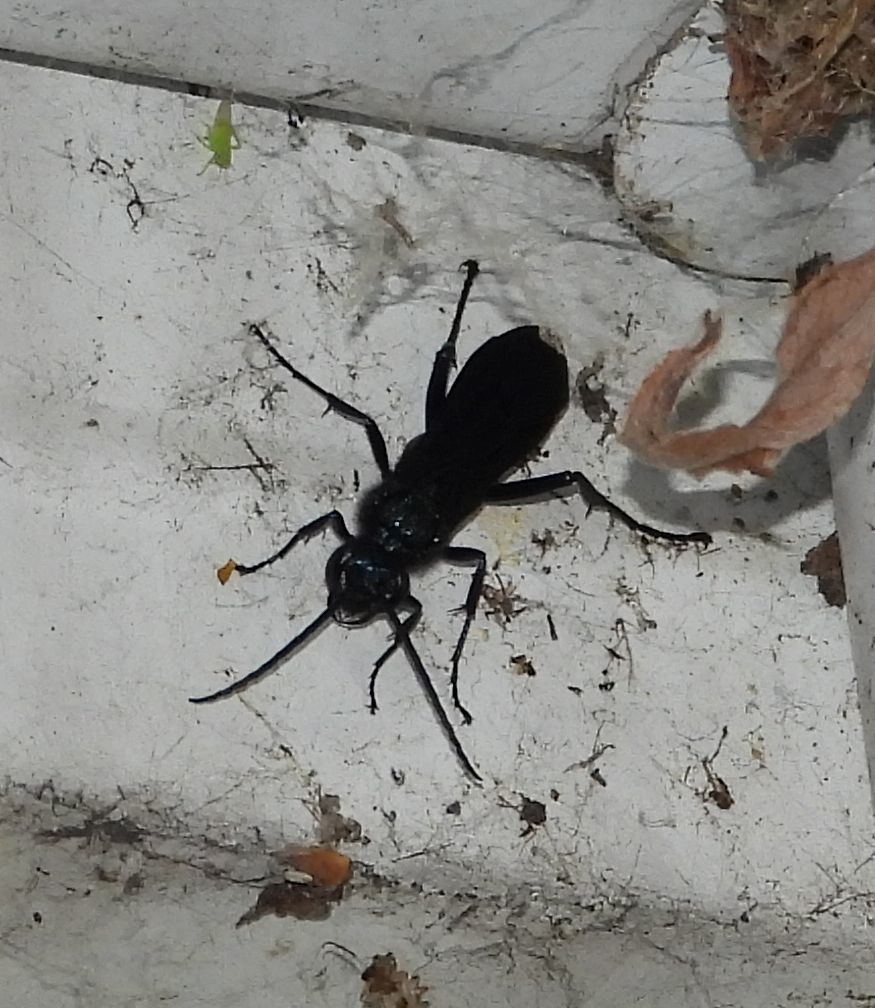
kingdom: Animalia
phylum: Arthropoda
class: Insecta
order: Hymenoptera
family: Sphecidae
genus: Chalybion
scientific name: Chalybion californicum
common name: Mud dauber
